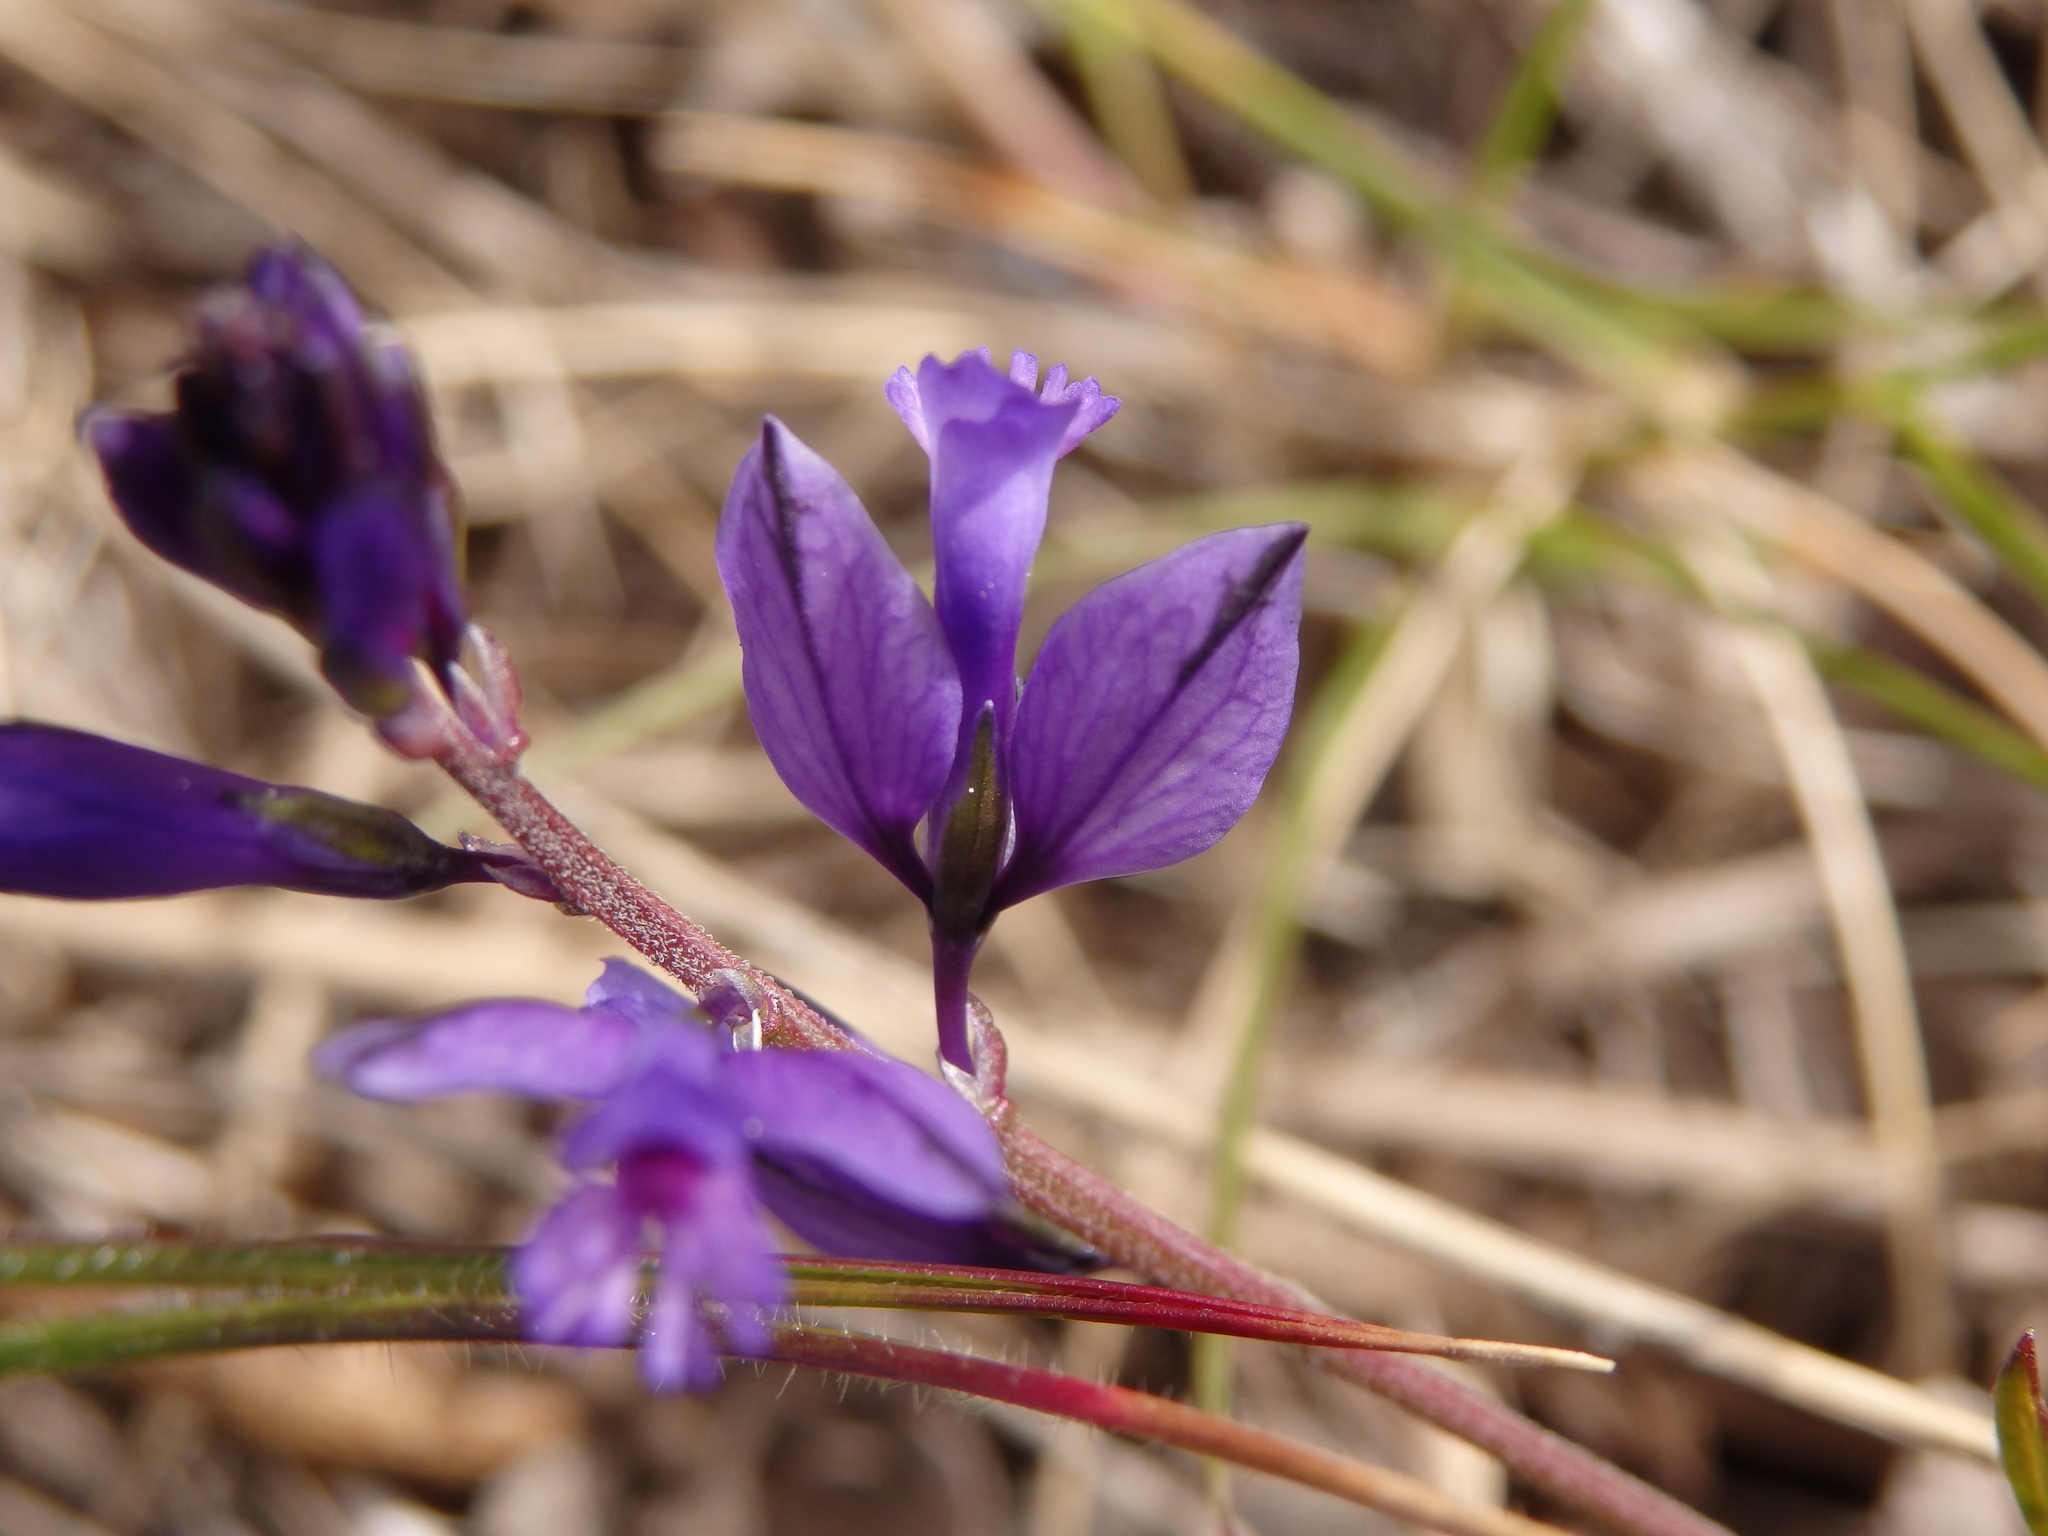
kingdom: Plantae
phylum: Tracheophyta
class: Magnoliopsida
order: Fabales
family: Polygalaceae
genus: Polygala
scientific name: Polygala vulgaris
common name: Common milkwort
